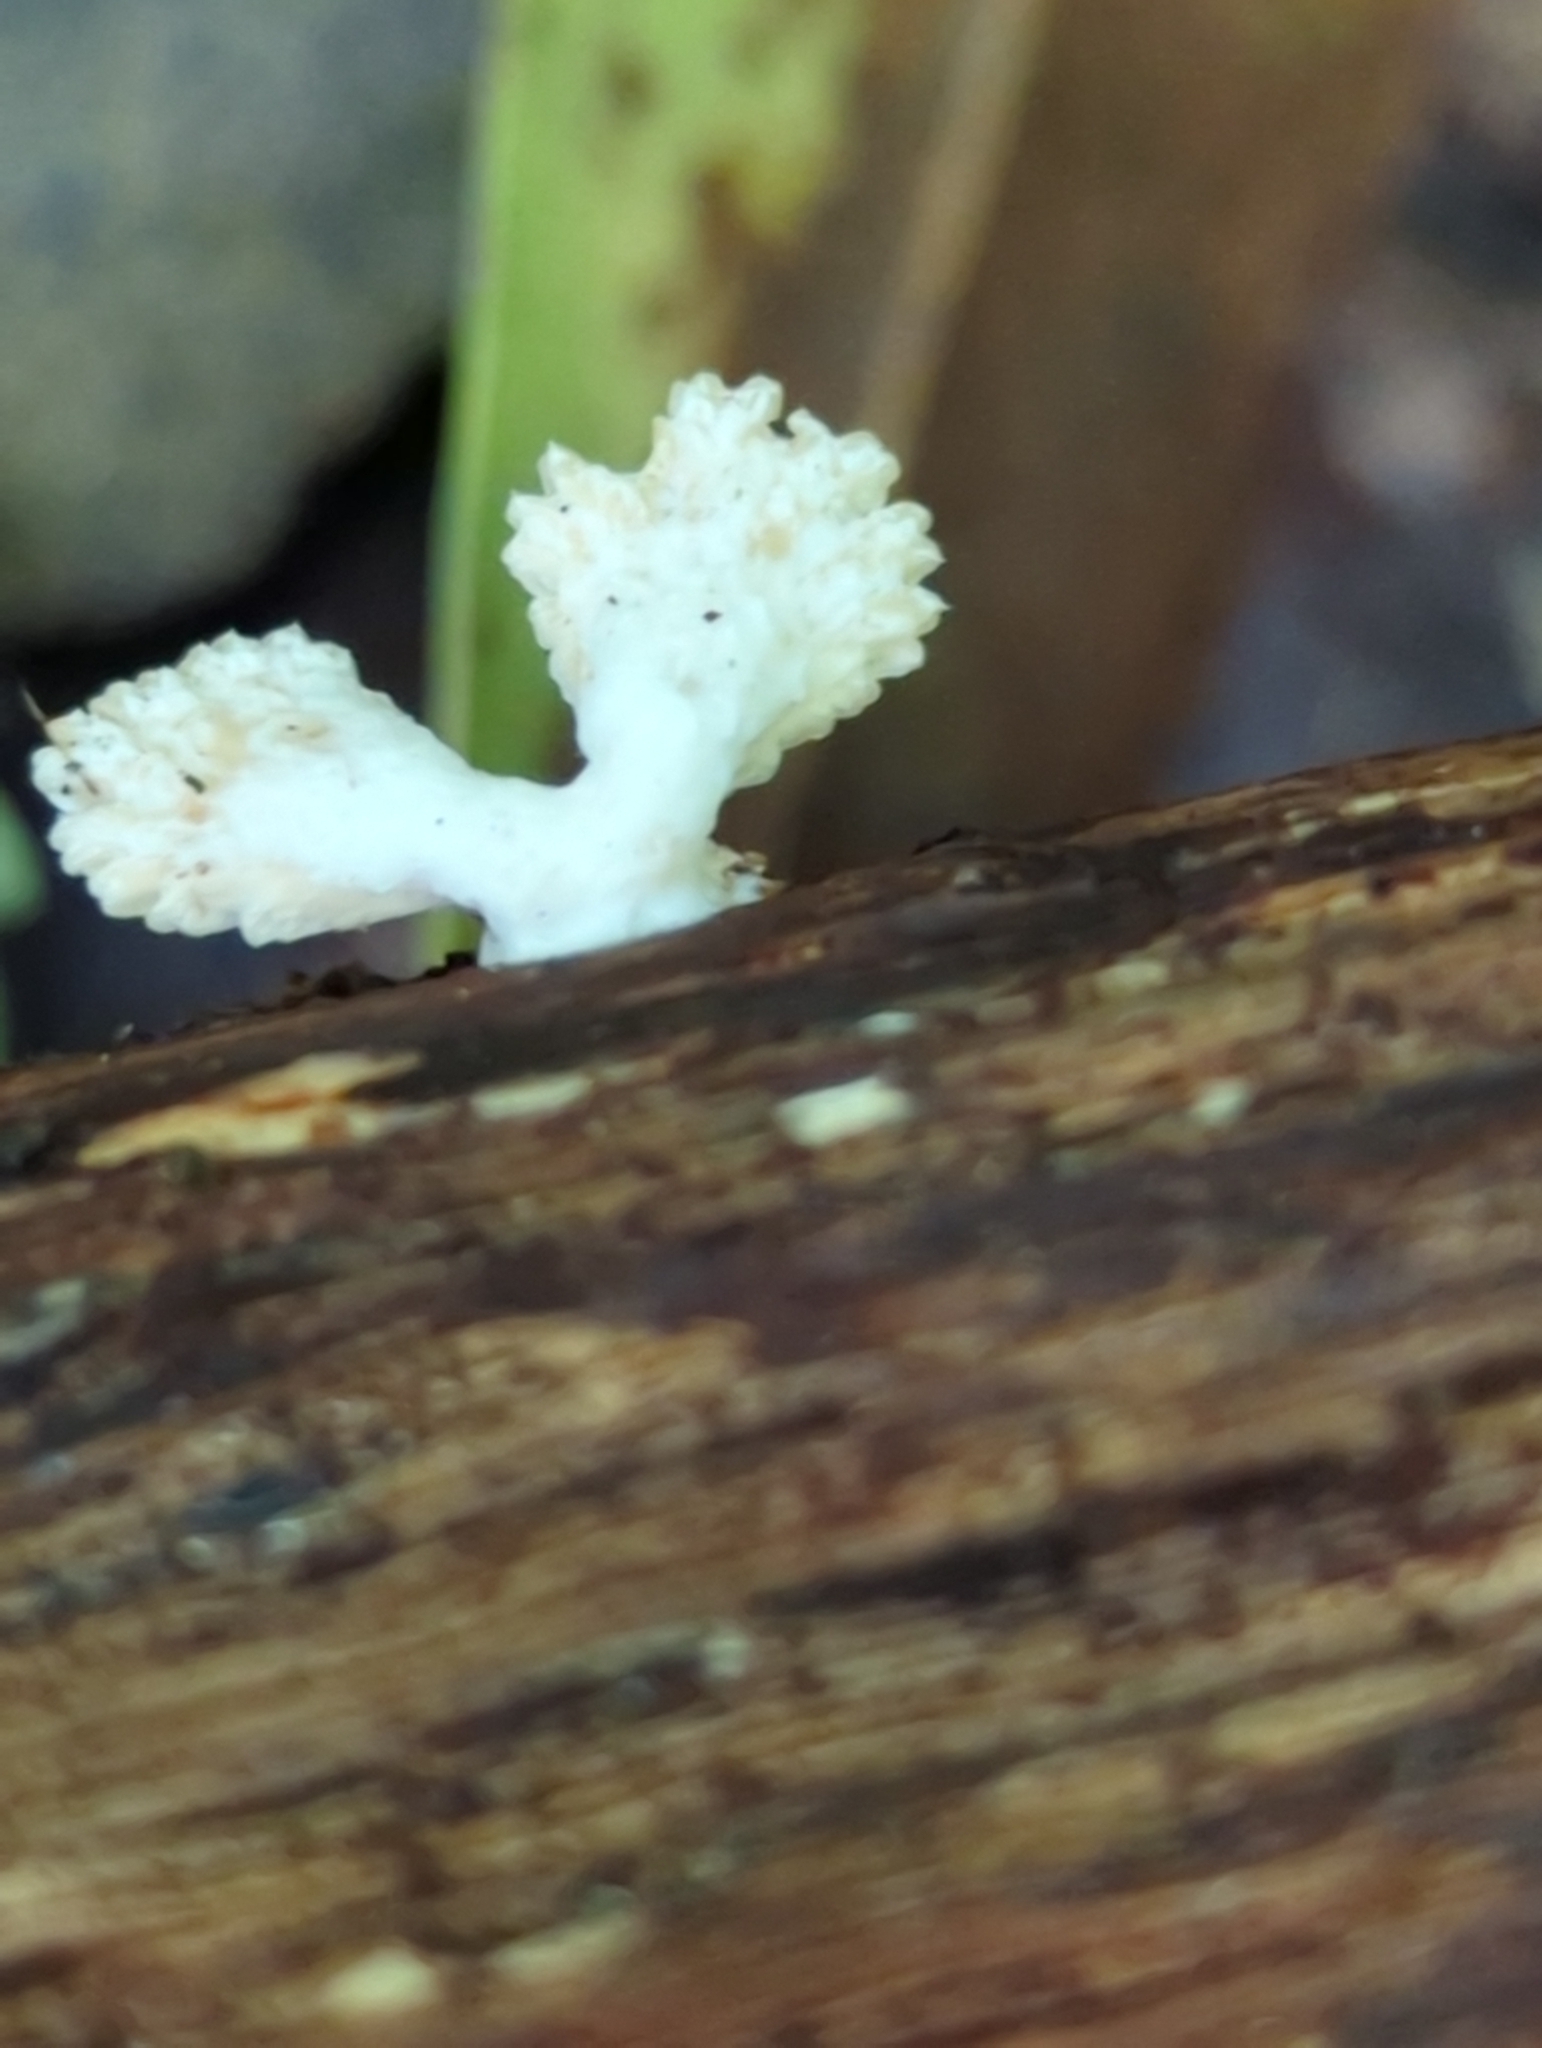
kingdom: Fungi
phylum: Basidiomycota
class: Agaricomycetes
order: Agaricales
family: Schizophyllaceae
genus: Schizophyllum
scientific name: Schizophyllum commune
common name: Common porecrust
